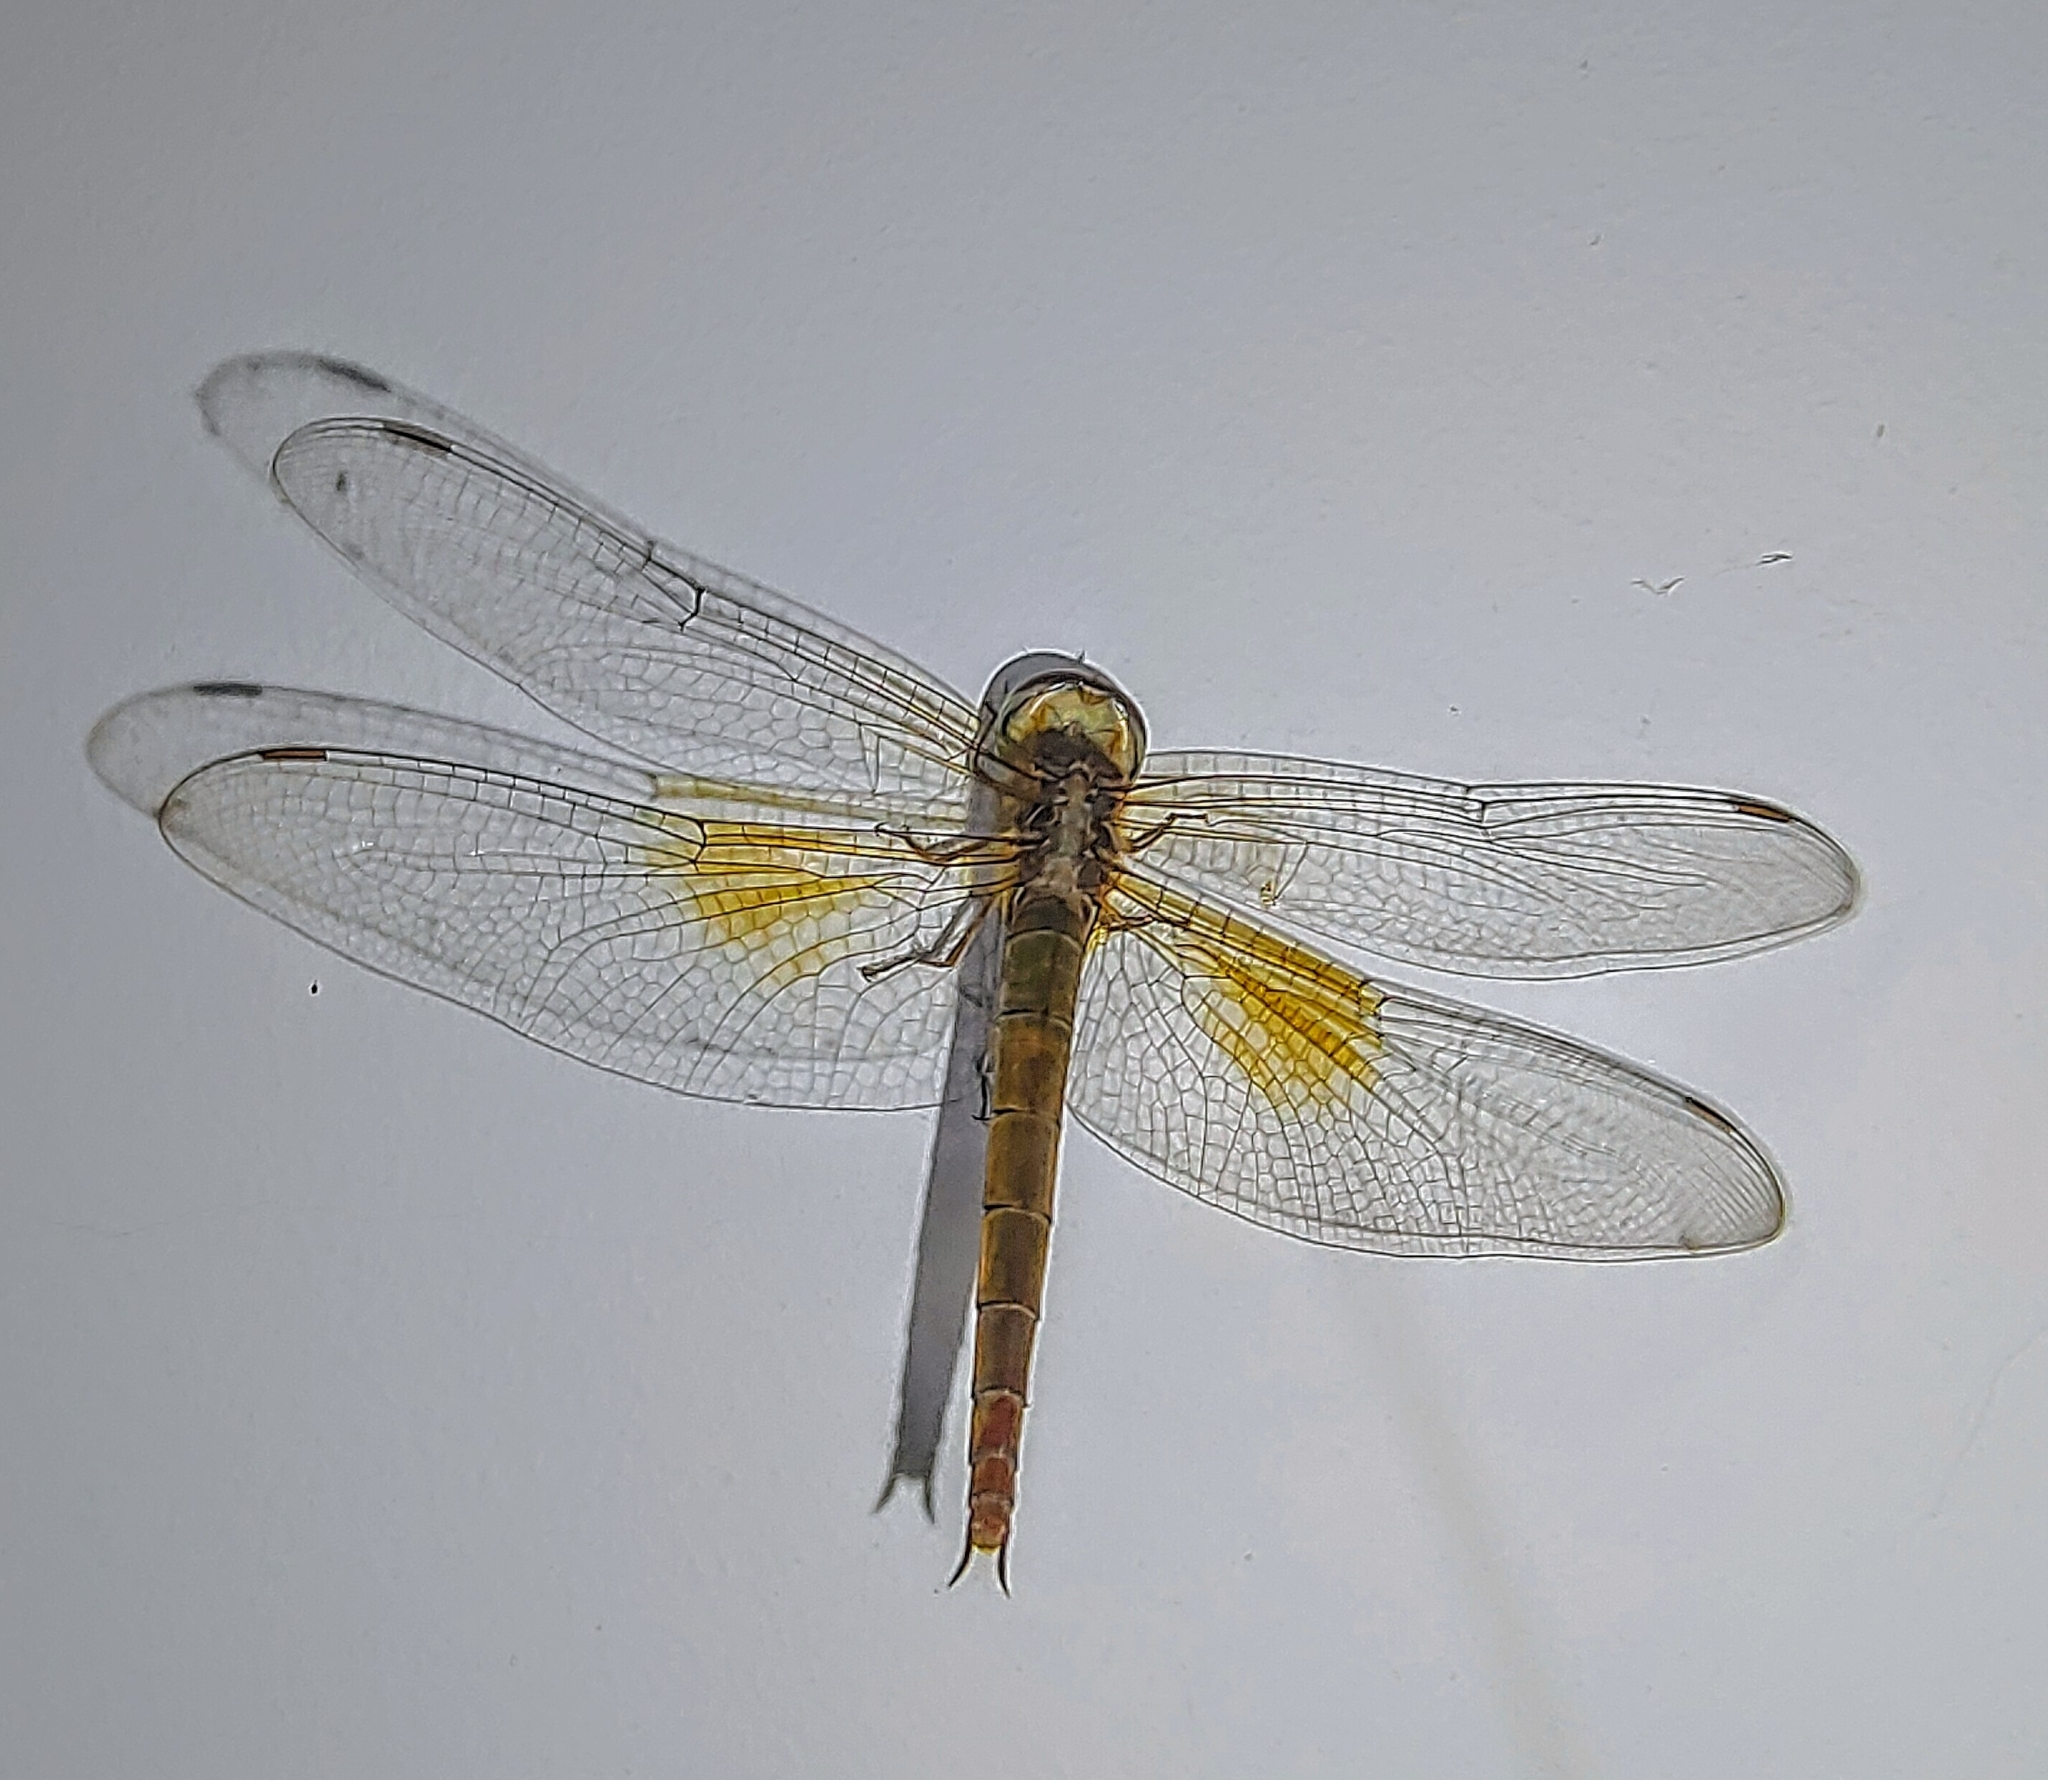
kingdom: Animalia
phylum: Arthropoda
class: Insecta
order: Odonata
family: Libellulidae
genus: Tholymis
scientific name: Tholymis tillarga
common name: Coral-tailed cloud wing
